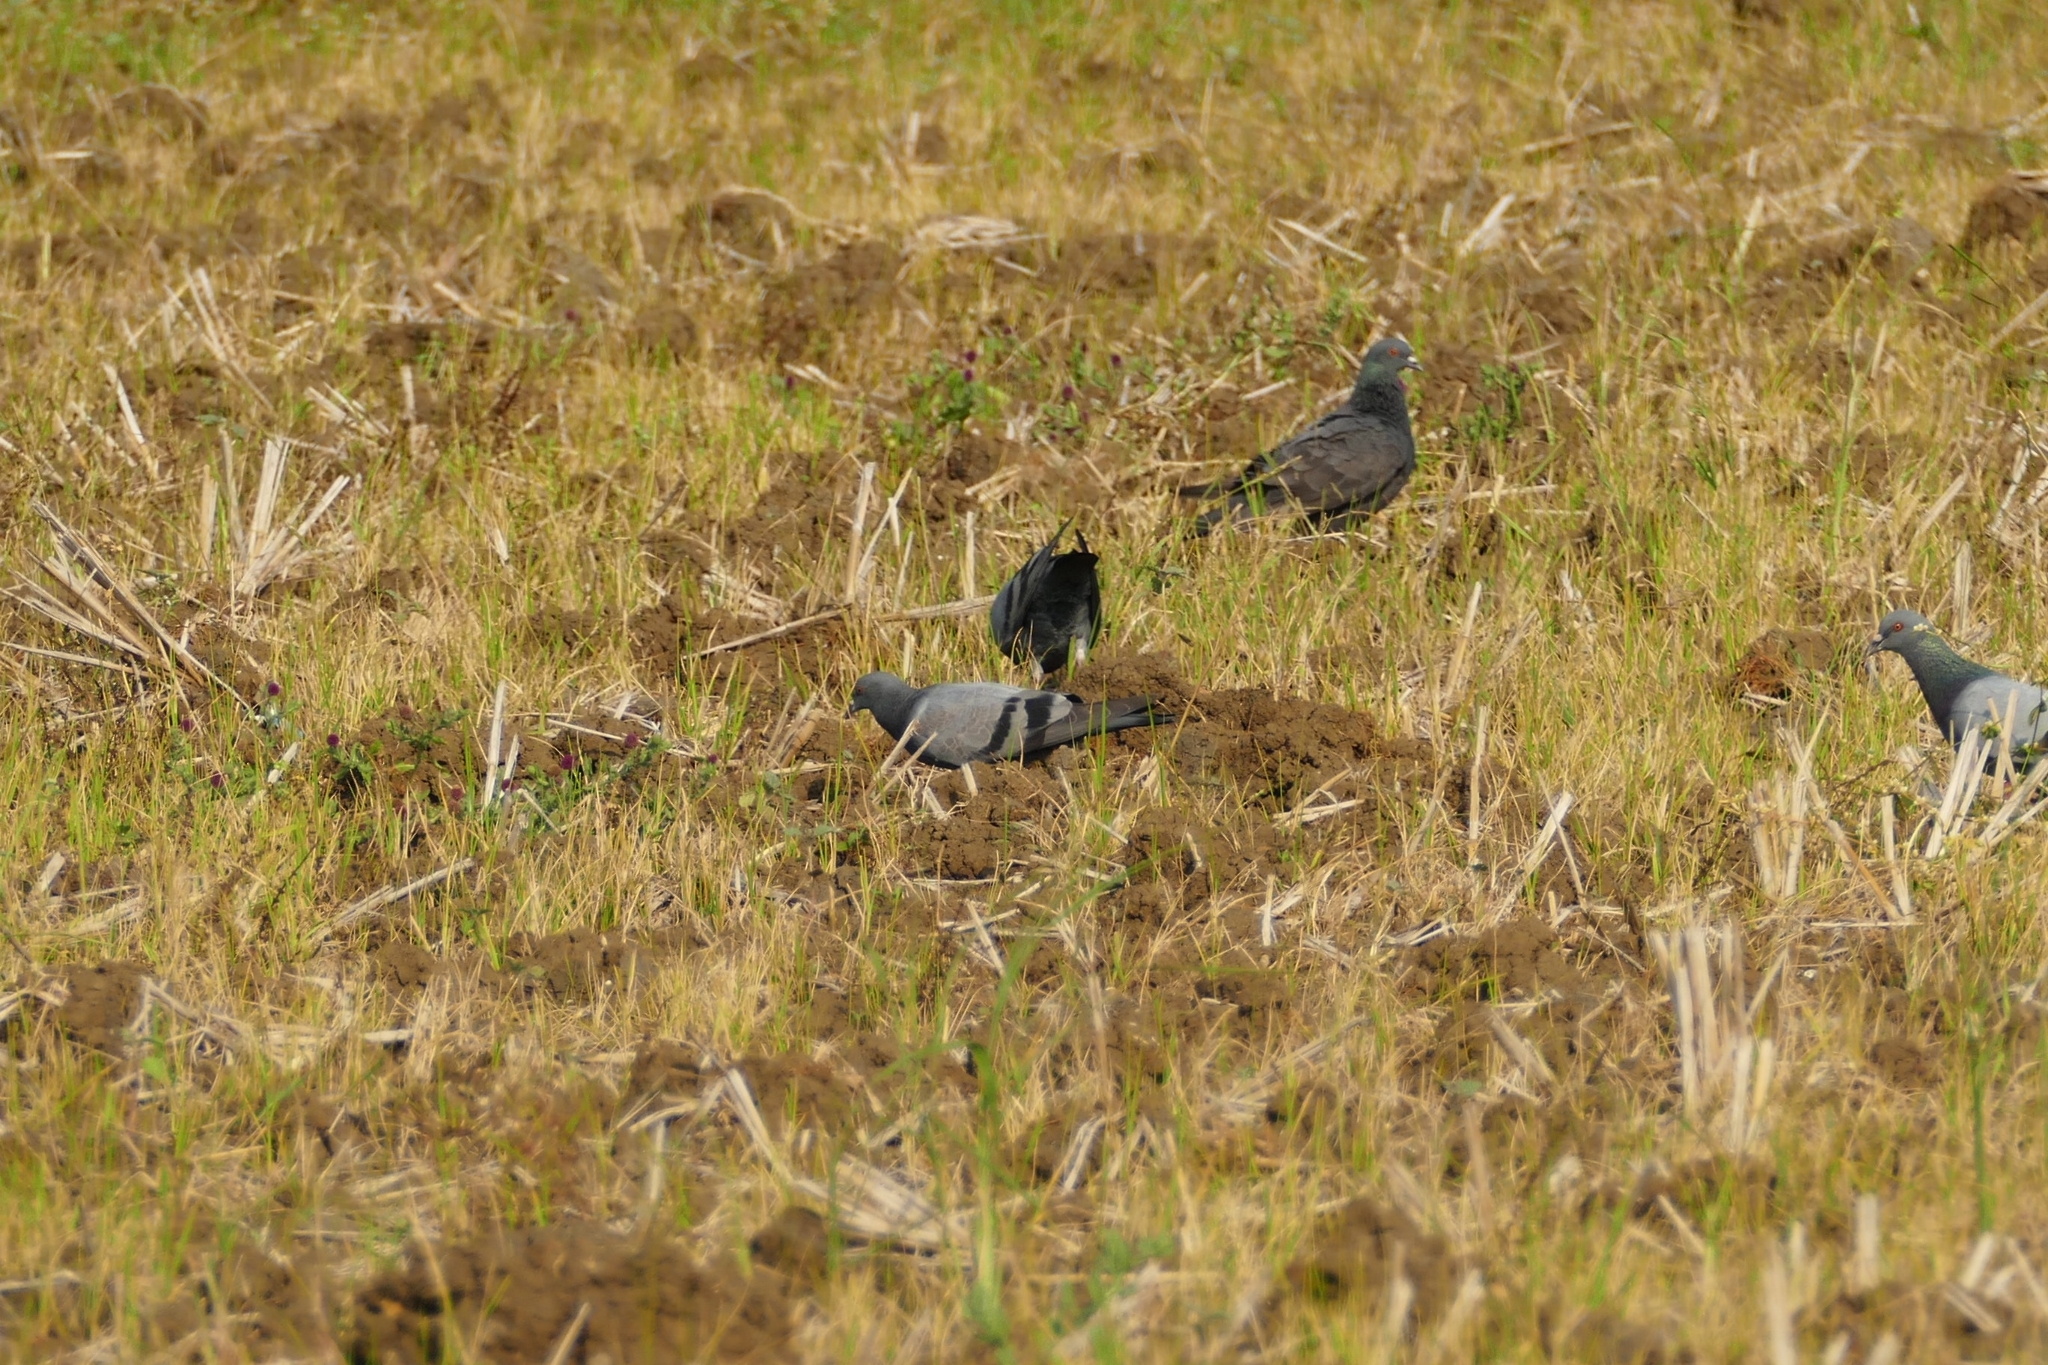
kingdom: Animalia
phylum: Chordata
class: Aves
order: Columbiformes
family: Columbidae
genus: Columba
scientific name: Columba livia
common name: Rock pigeon
